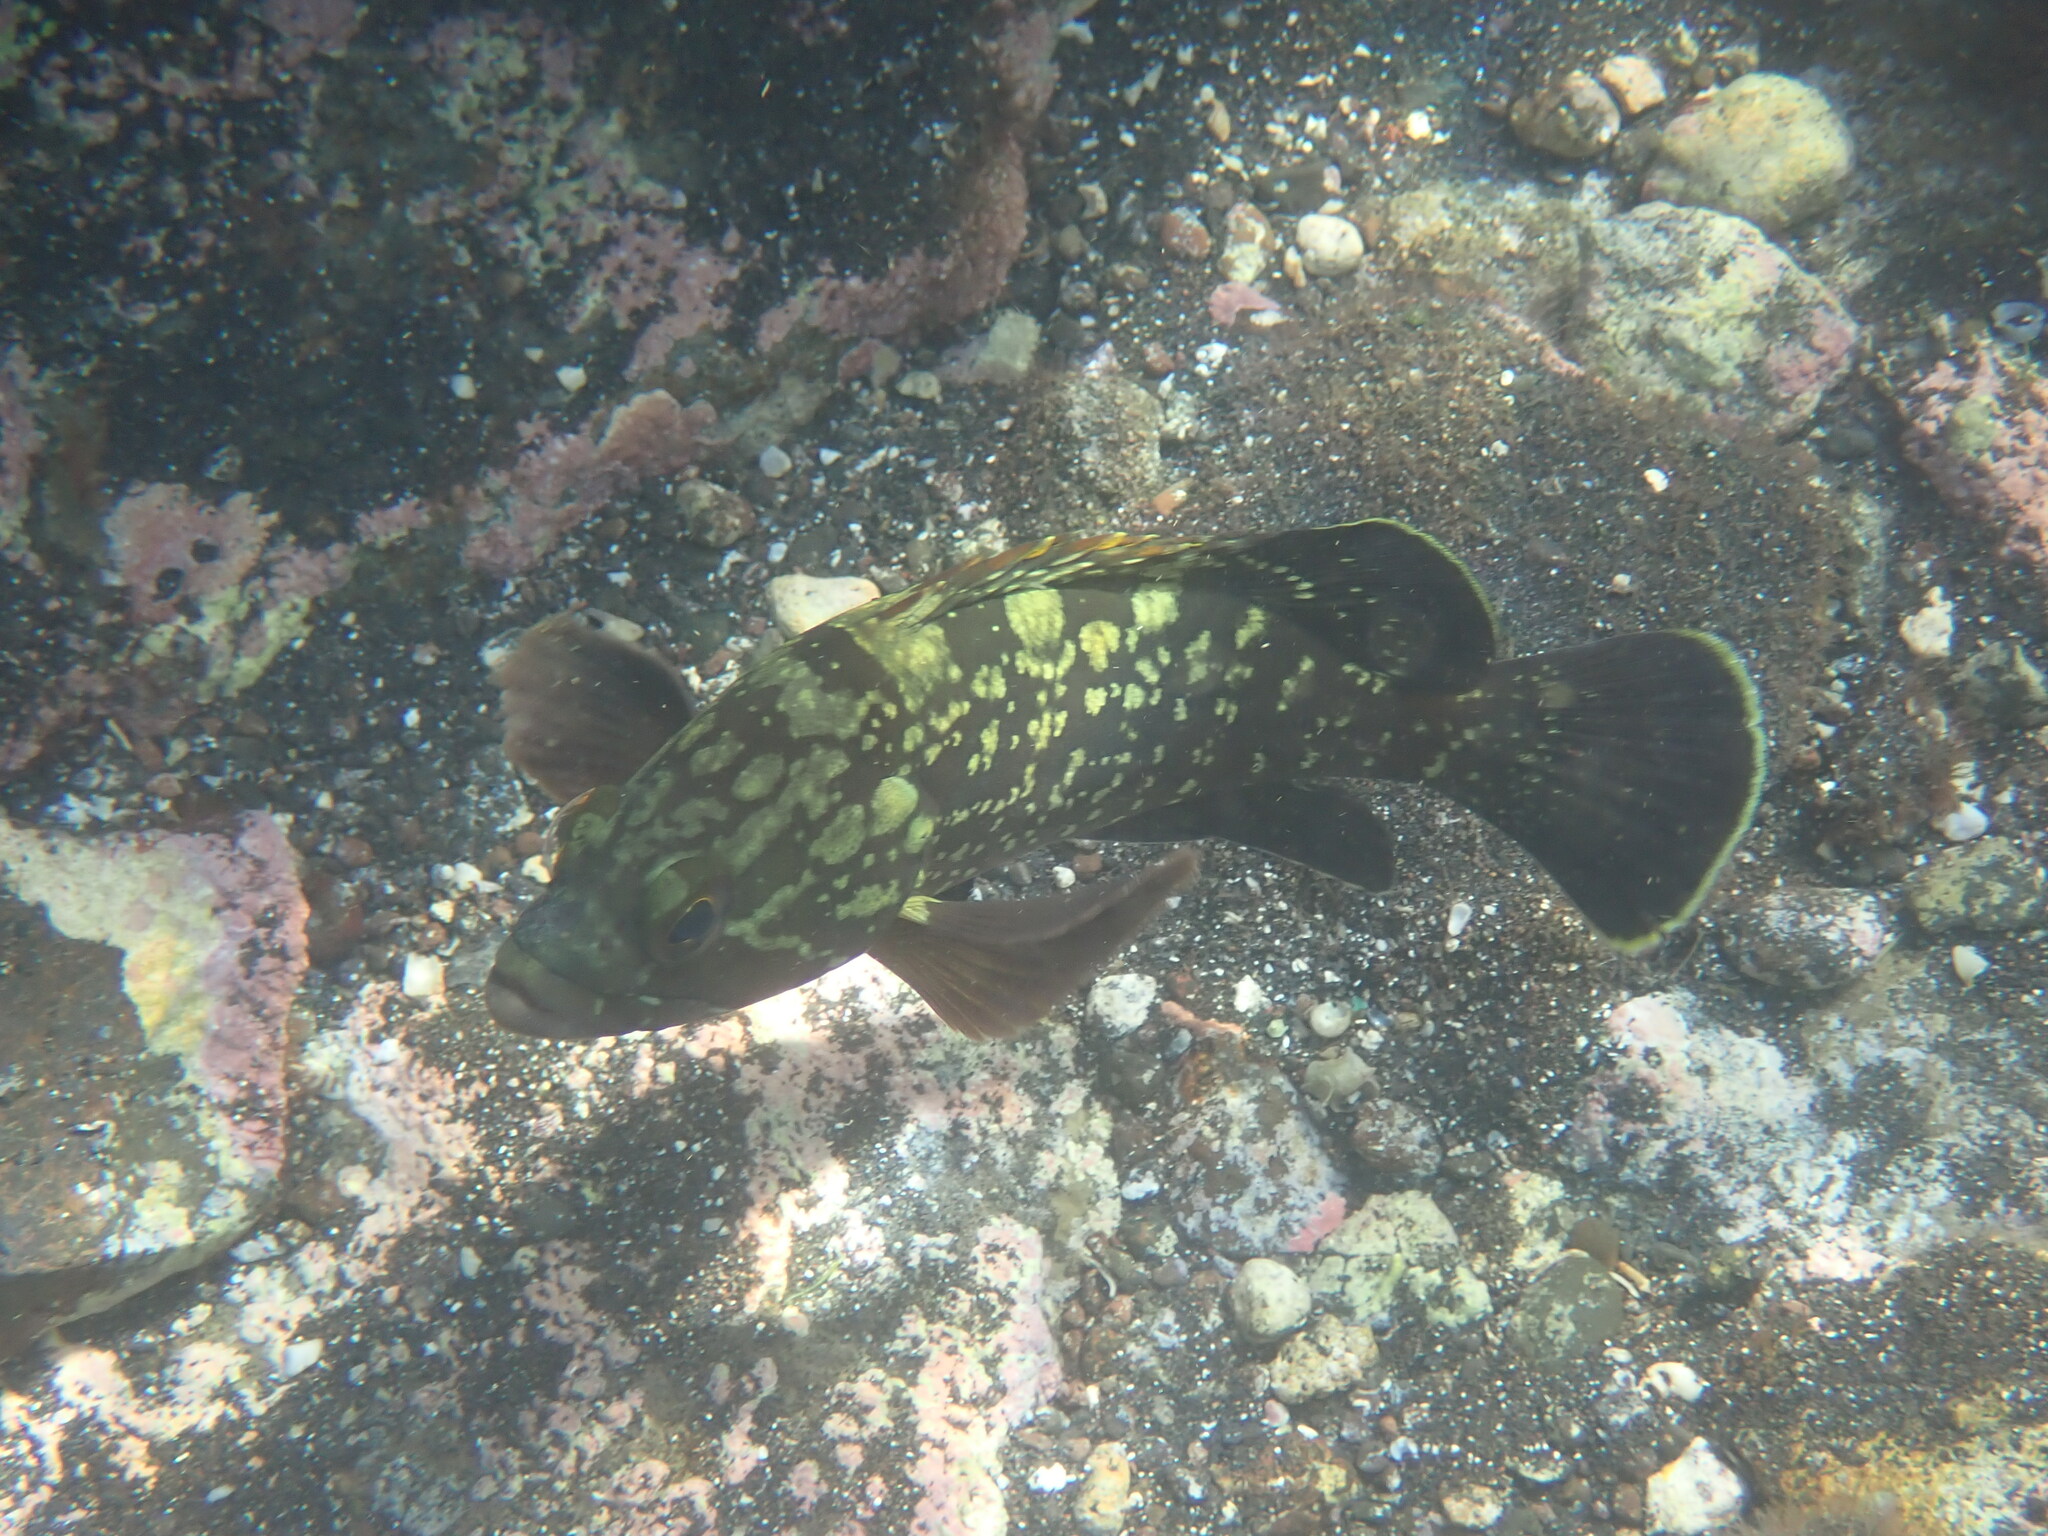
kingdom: Animalia
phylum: Chordata
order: Perciformes
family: Serranidae
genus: Epinephelus
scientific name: Epinephelus marginatus
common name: Dusky grouper
